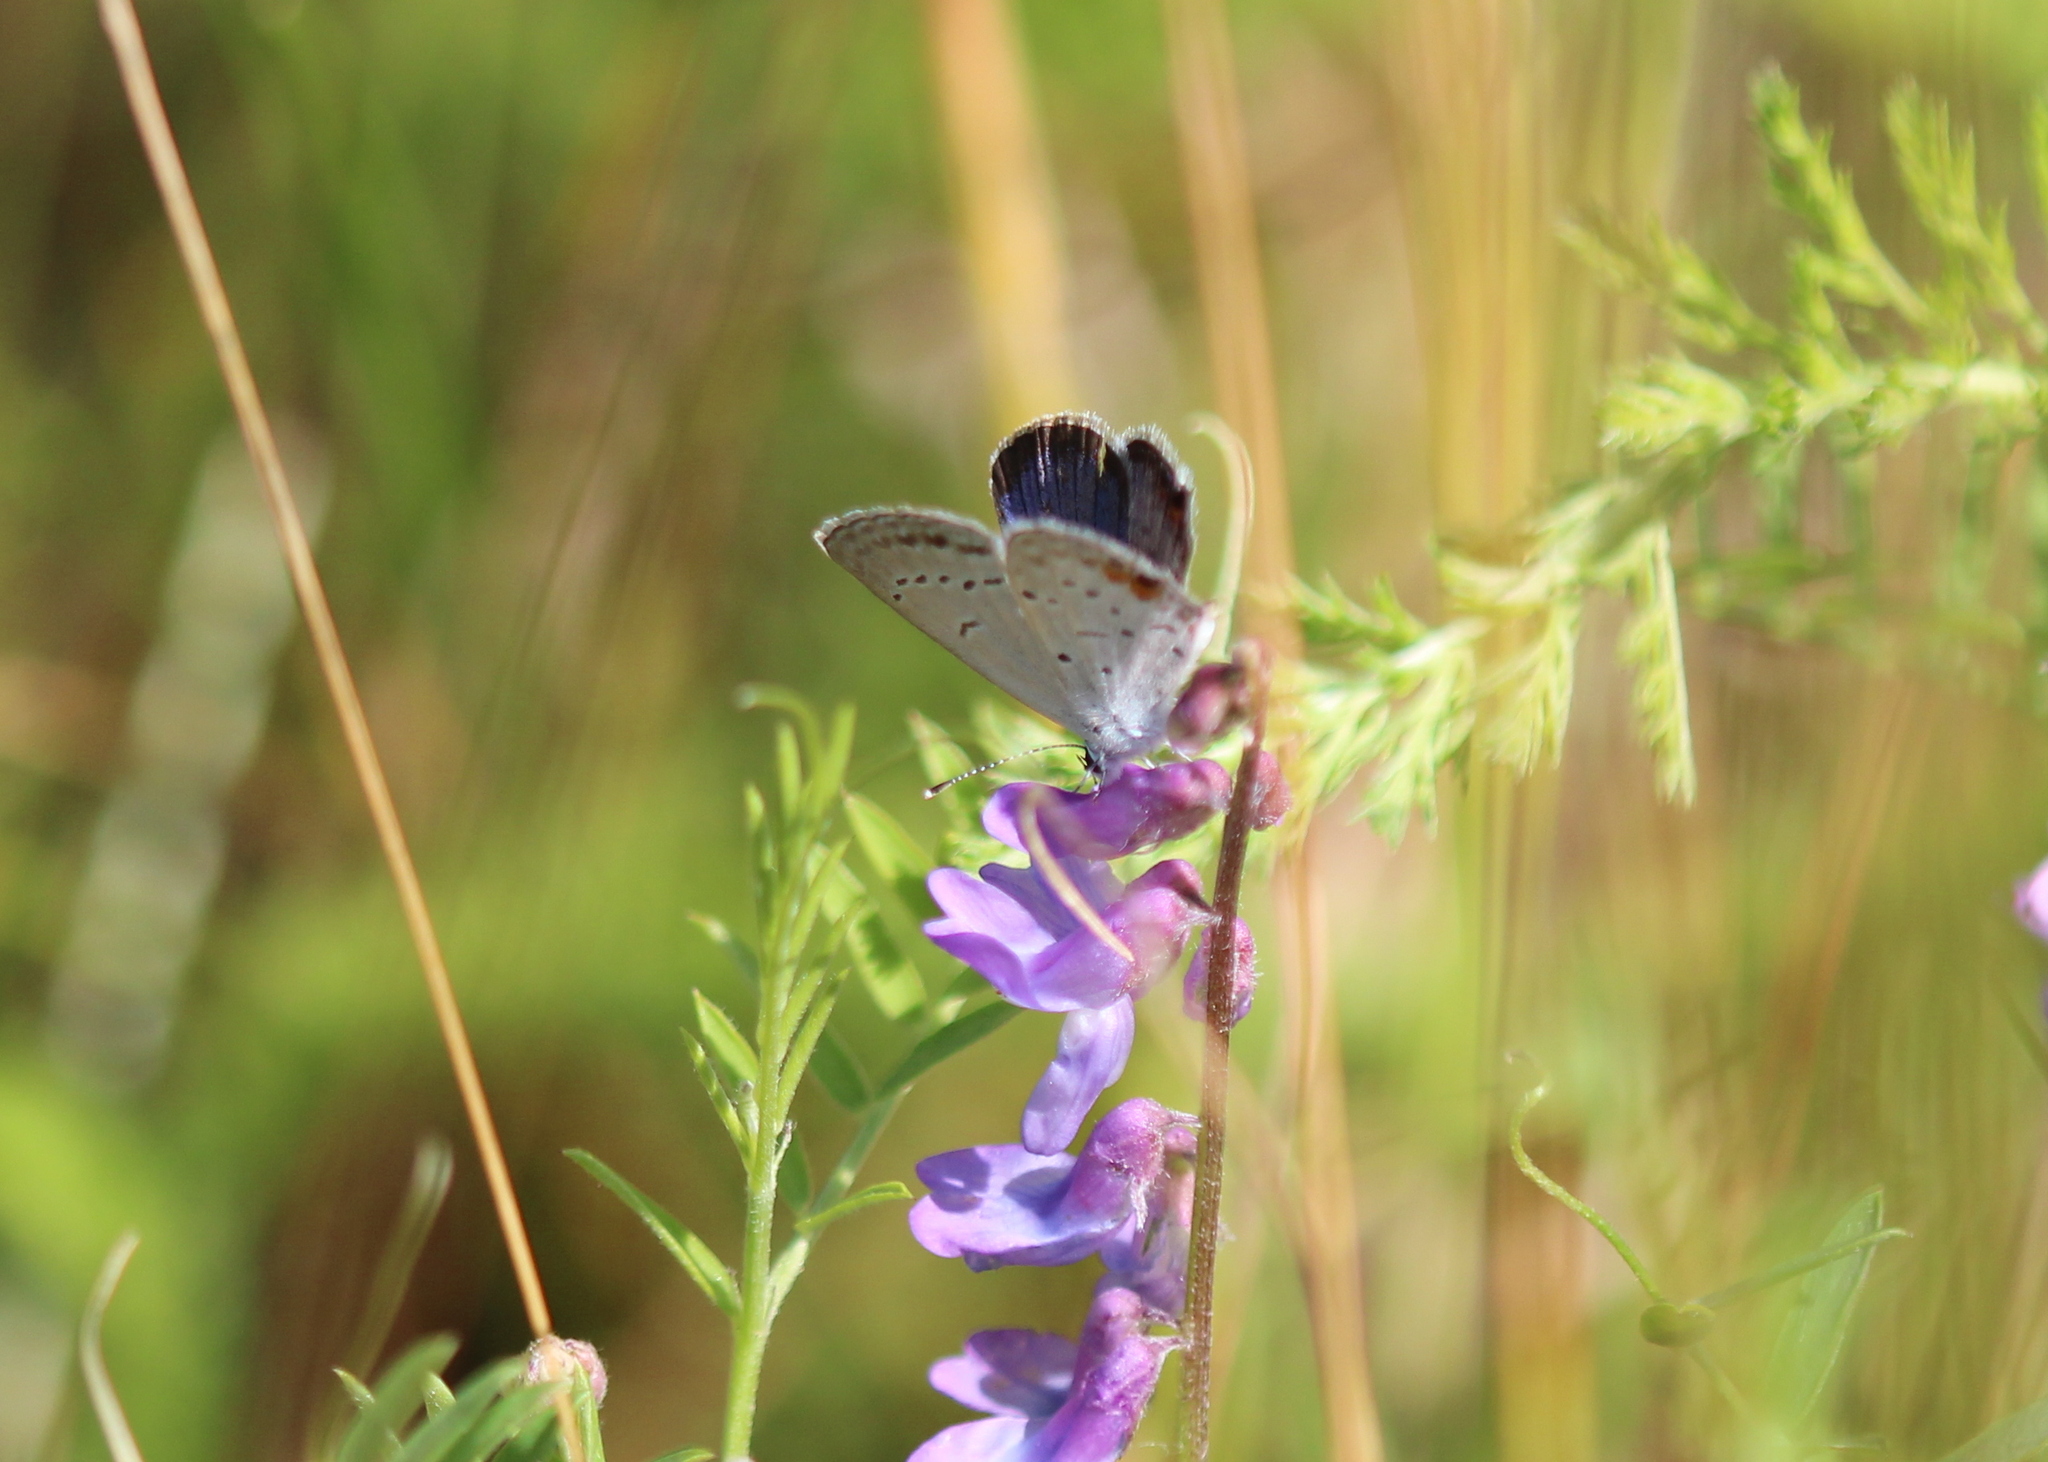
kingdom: Animalia
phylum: Arthropoda
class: Insecta
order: Lepidoptera
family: Lycaenidae
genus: Elkalyce
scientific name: Elkalyce comyntas
